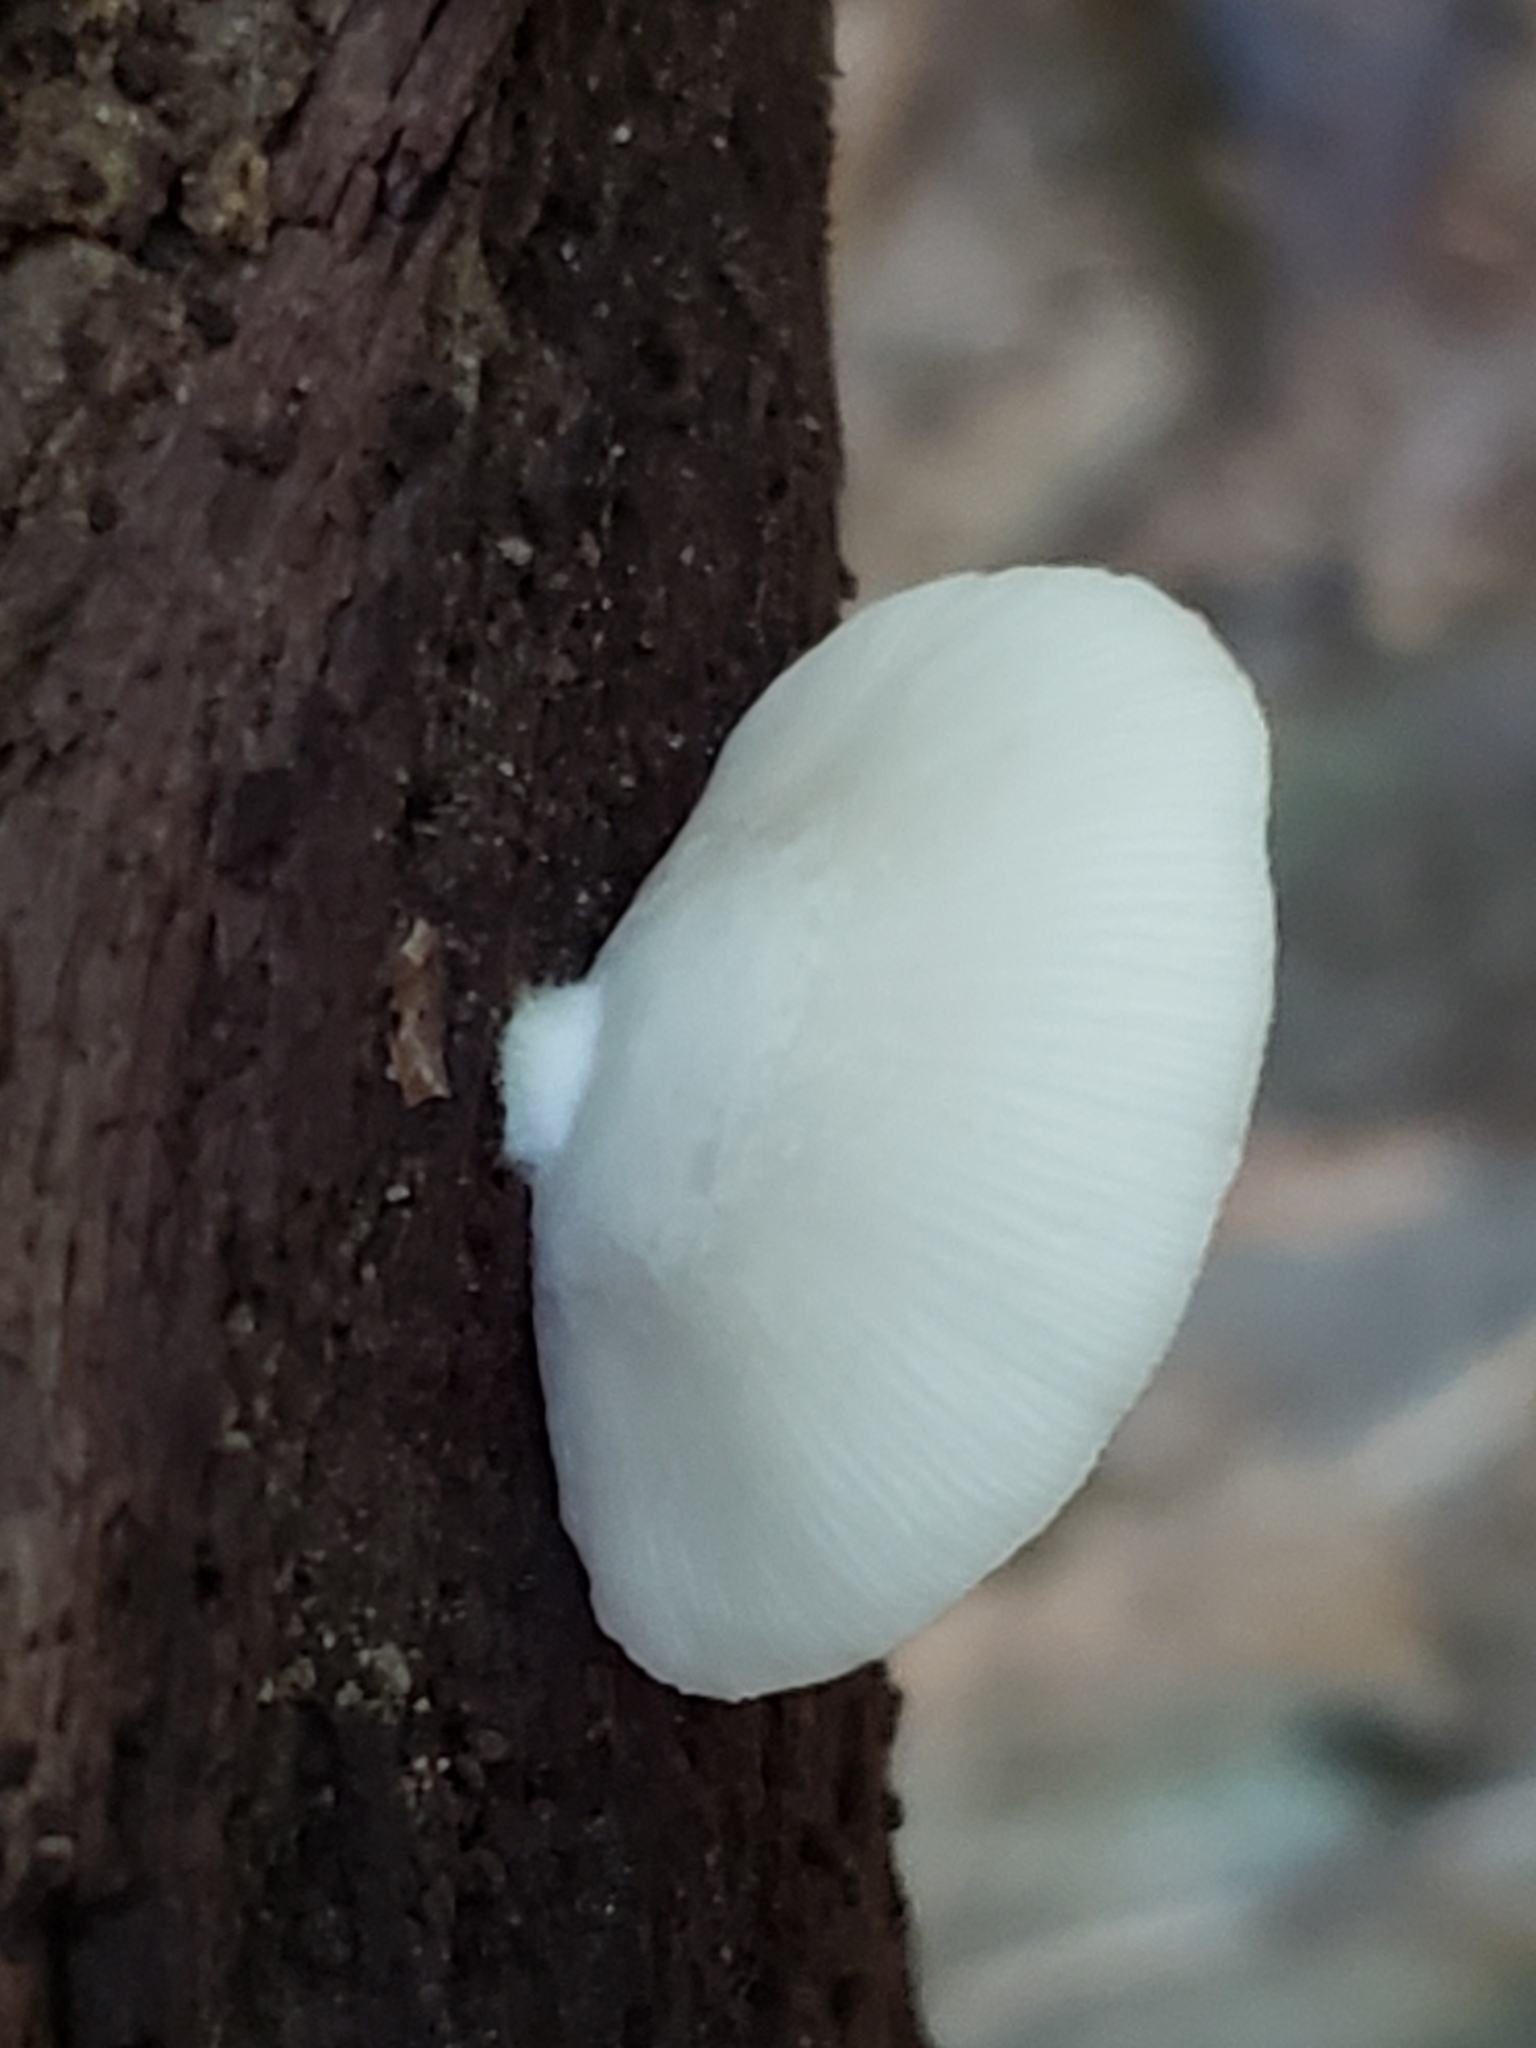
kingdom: Fungi
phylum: Basidiomycota
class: Agaricomycetes
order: Agaricales
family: Crepidotaceae
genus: Crepidotus
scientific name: Crepidotus applanatus
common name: Flat crep
